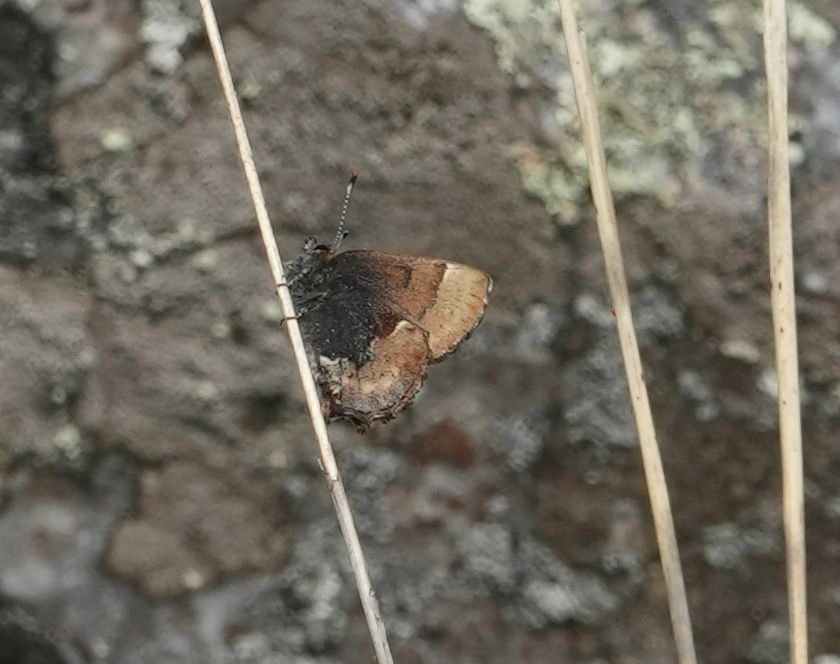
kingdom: Animalia
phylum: Arthropoda
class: Insecta
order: Lepidoptera
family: Lycaenidae
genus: Incisalia
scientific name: Incisalia henrici
